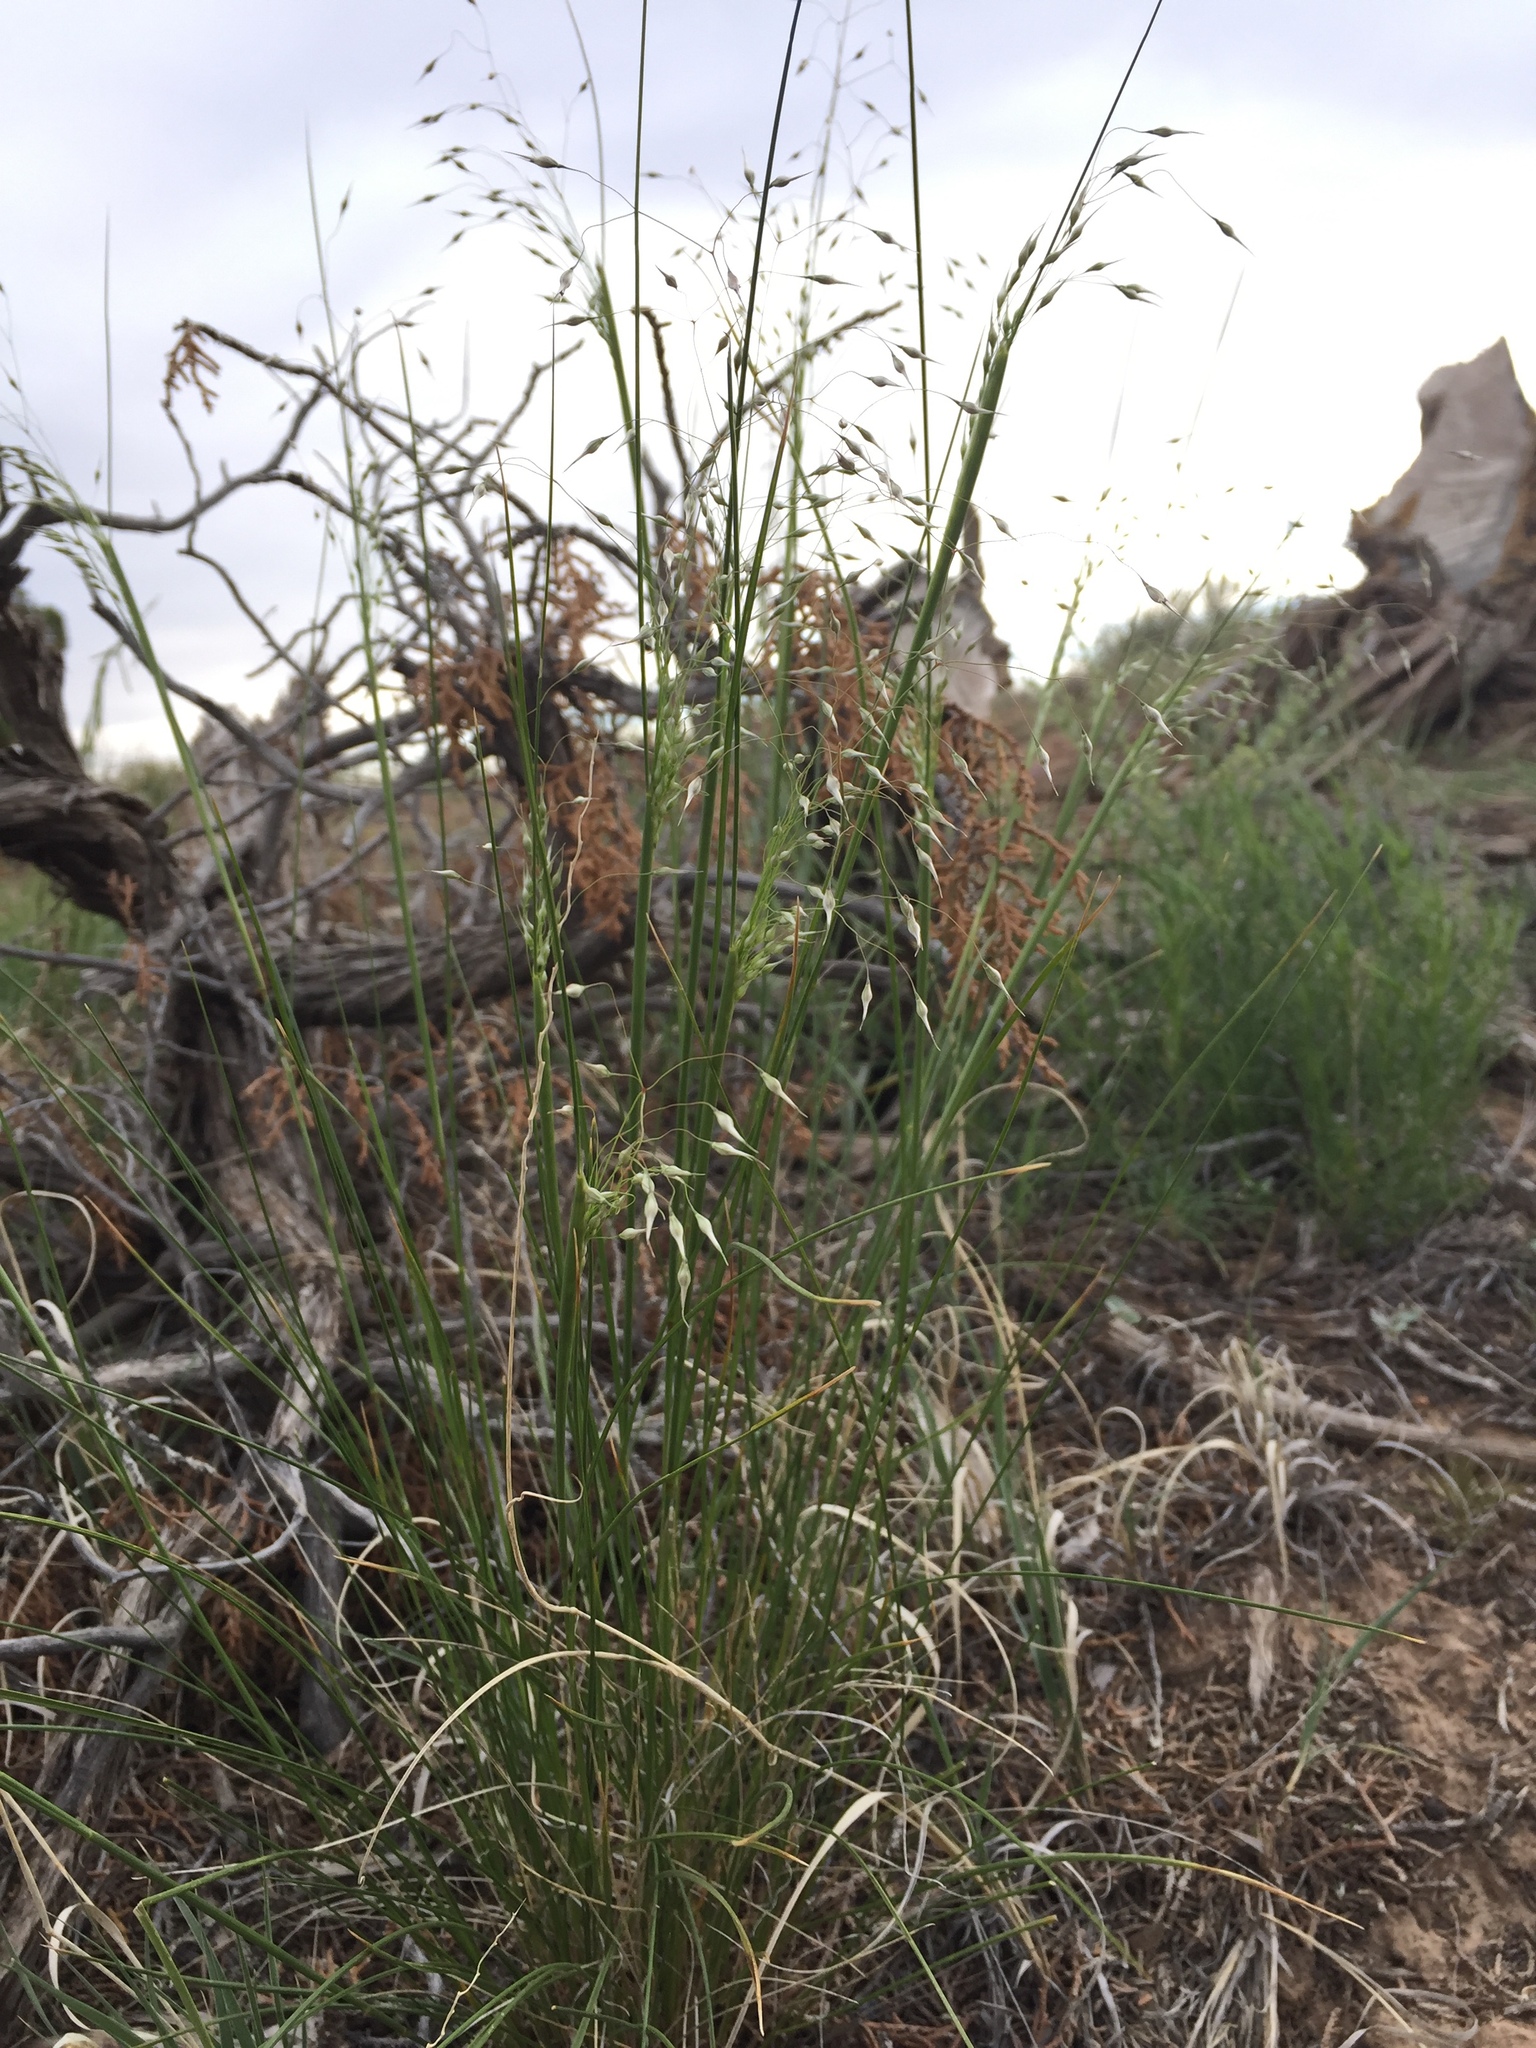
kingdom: Plantae
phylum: Tracheophyta
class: Liliopsida
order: Poales
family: Poaceae
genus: Eriocoma
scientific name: Eriocoma hymenoides
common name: Indian mountain ricegrass
